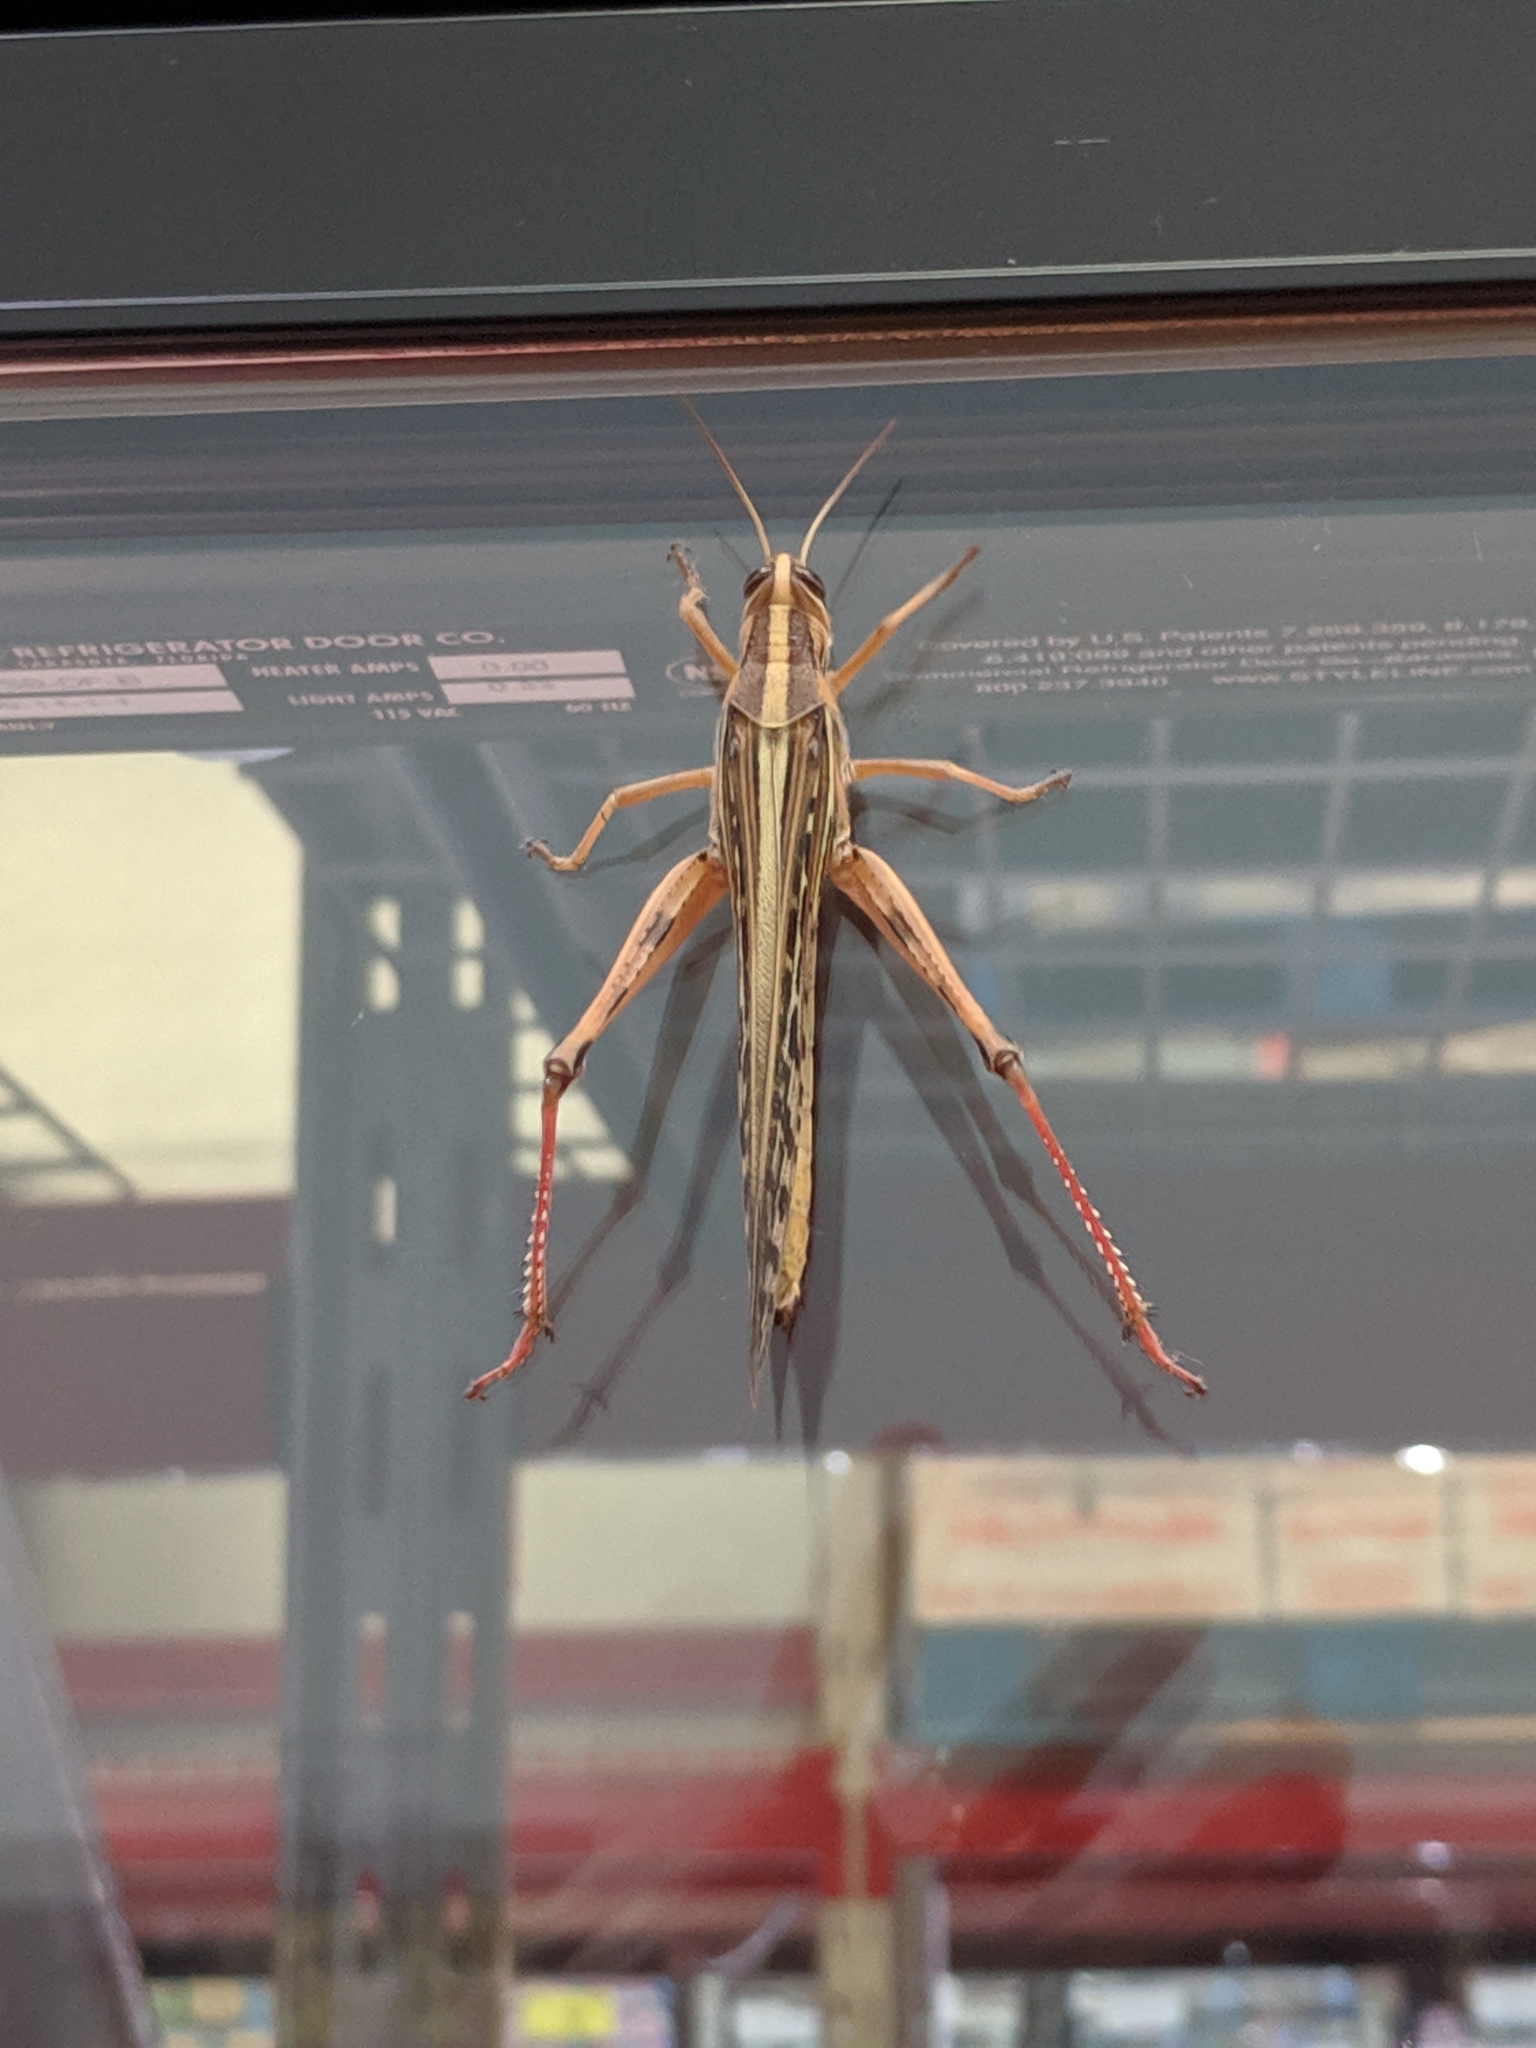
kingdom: Animalia
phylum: Arthropoda
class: Insecta
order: Orthoptera
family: Acrididae
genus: Schistocerca
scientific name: Schistocerca americana
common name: American bird locust
